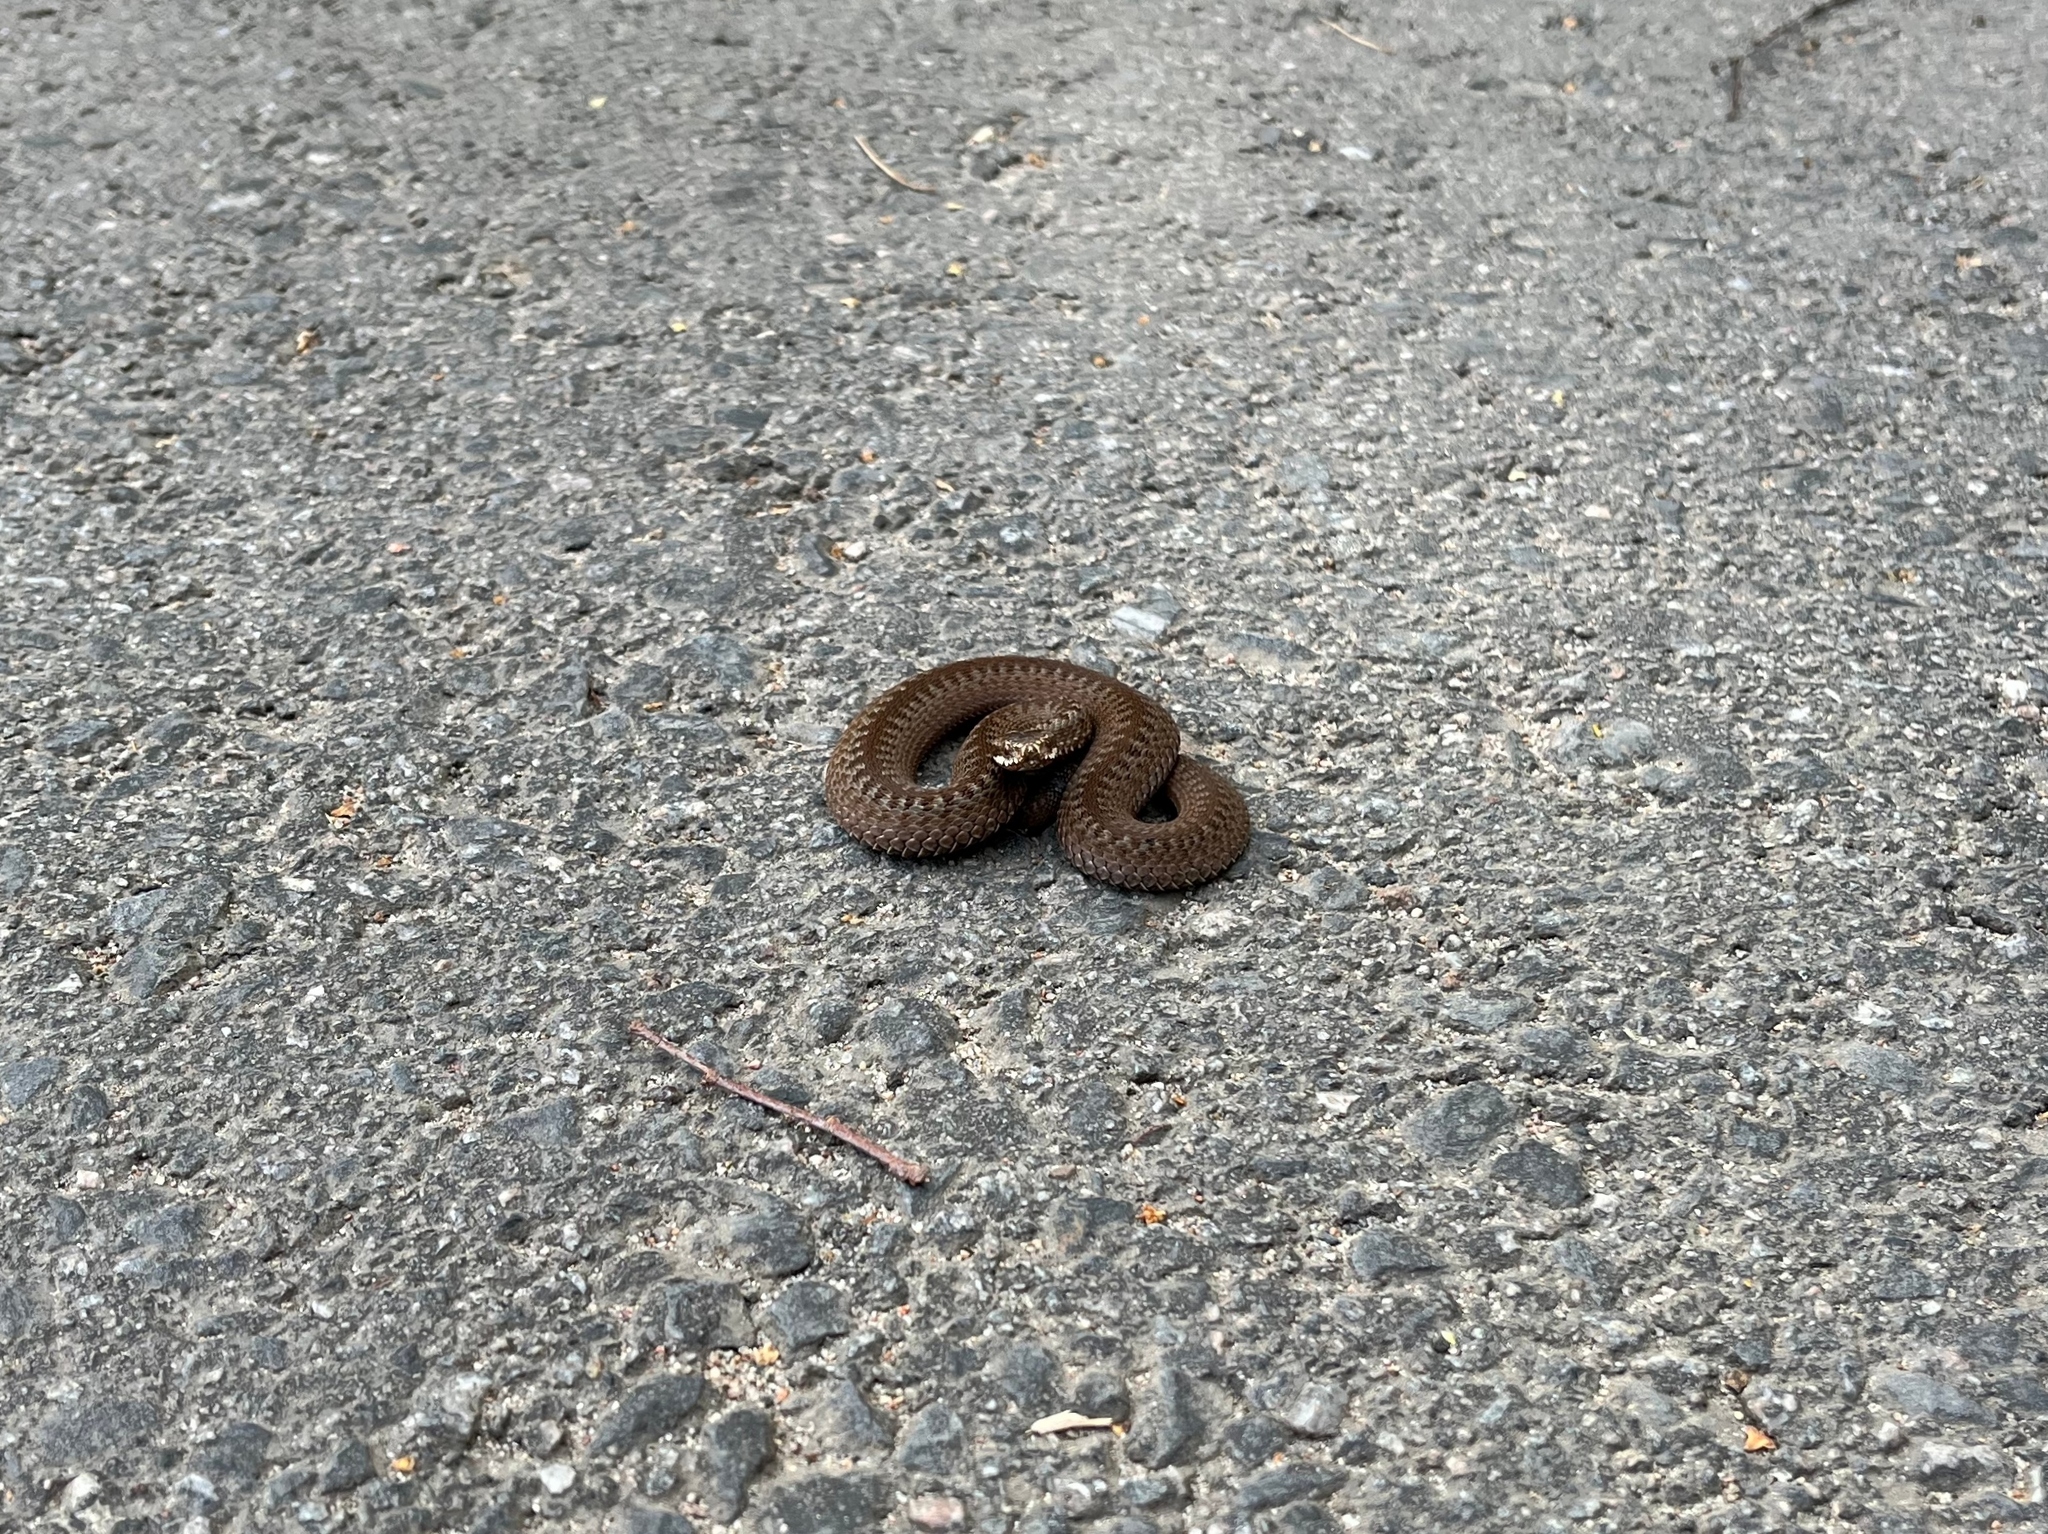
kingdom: Animalia
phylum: Chordata
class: Squamata
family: Viperidae
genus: Vipera
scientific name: Vipera berus
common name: Adder
